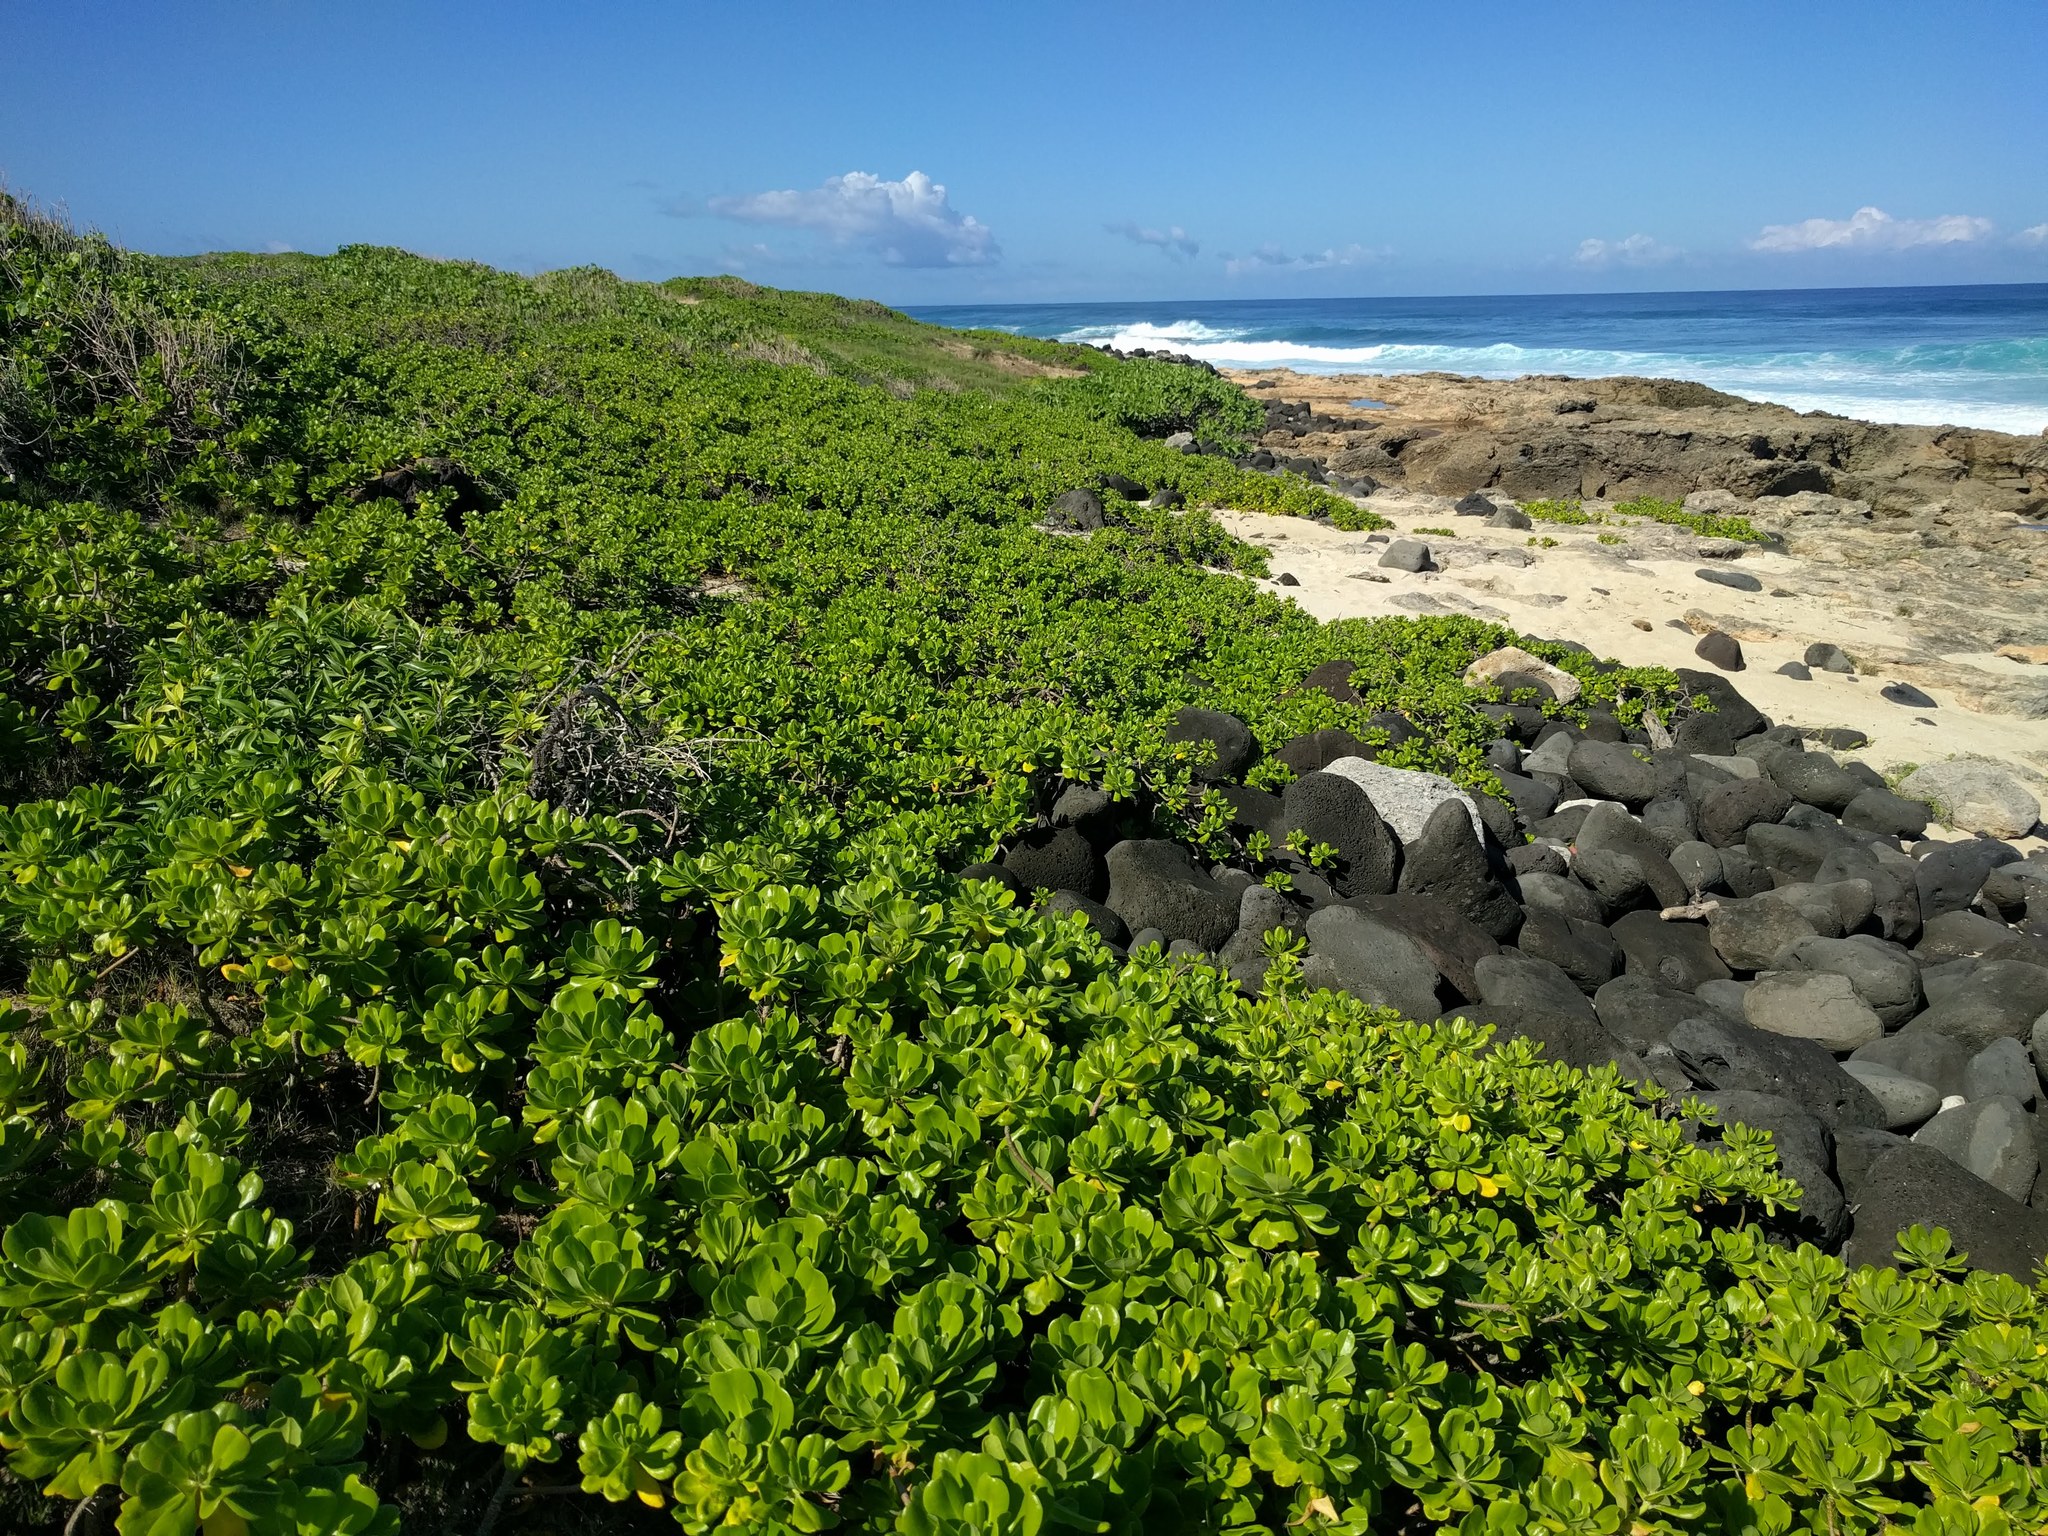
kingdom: Plantae
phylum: Tracheophyta
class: Magnoliopsida
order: Asterales
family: Goodeniaceae
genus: Scaevola
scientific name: Scaevola taccada
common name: Sea lettucetree
